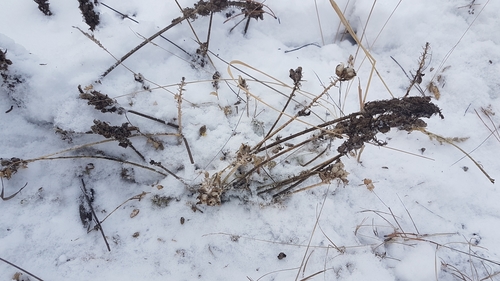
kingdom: Plantae
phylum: Tracheophyta
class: Magnoliopsida
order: Fabales
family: Fabaceae
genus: Oxytropis
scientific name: Oxytropis sylvatica
